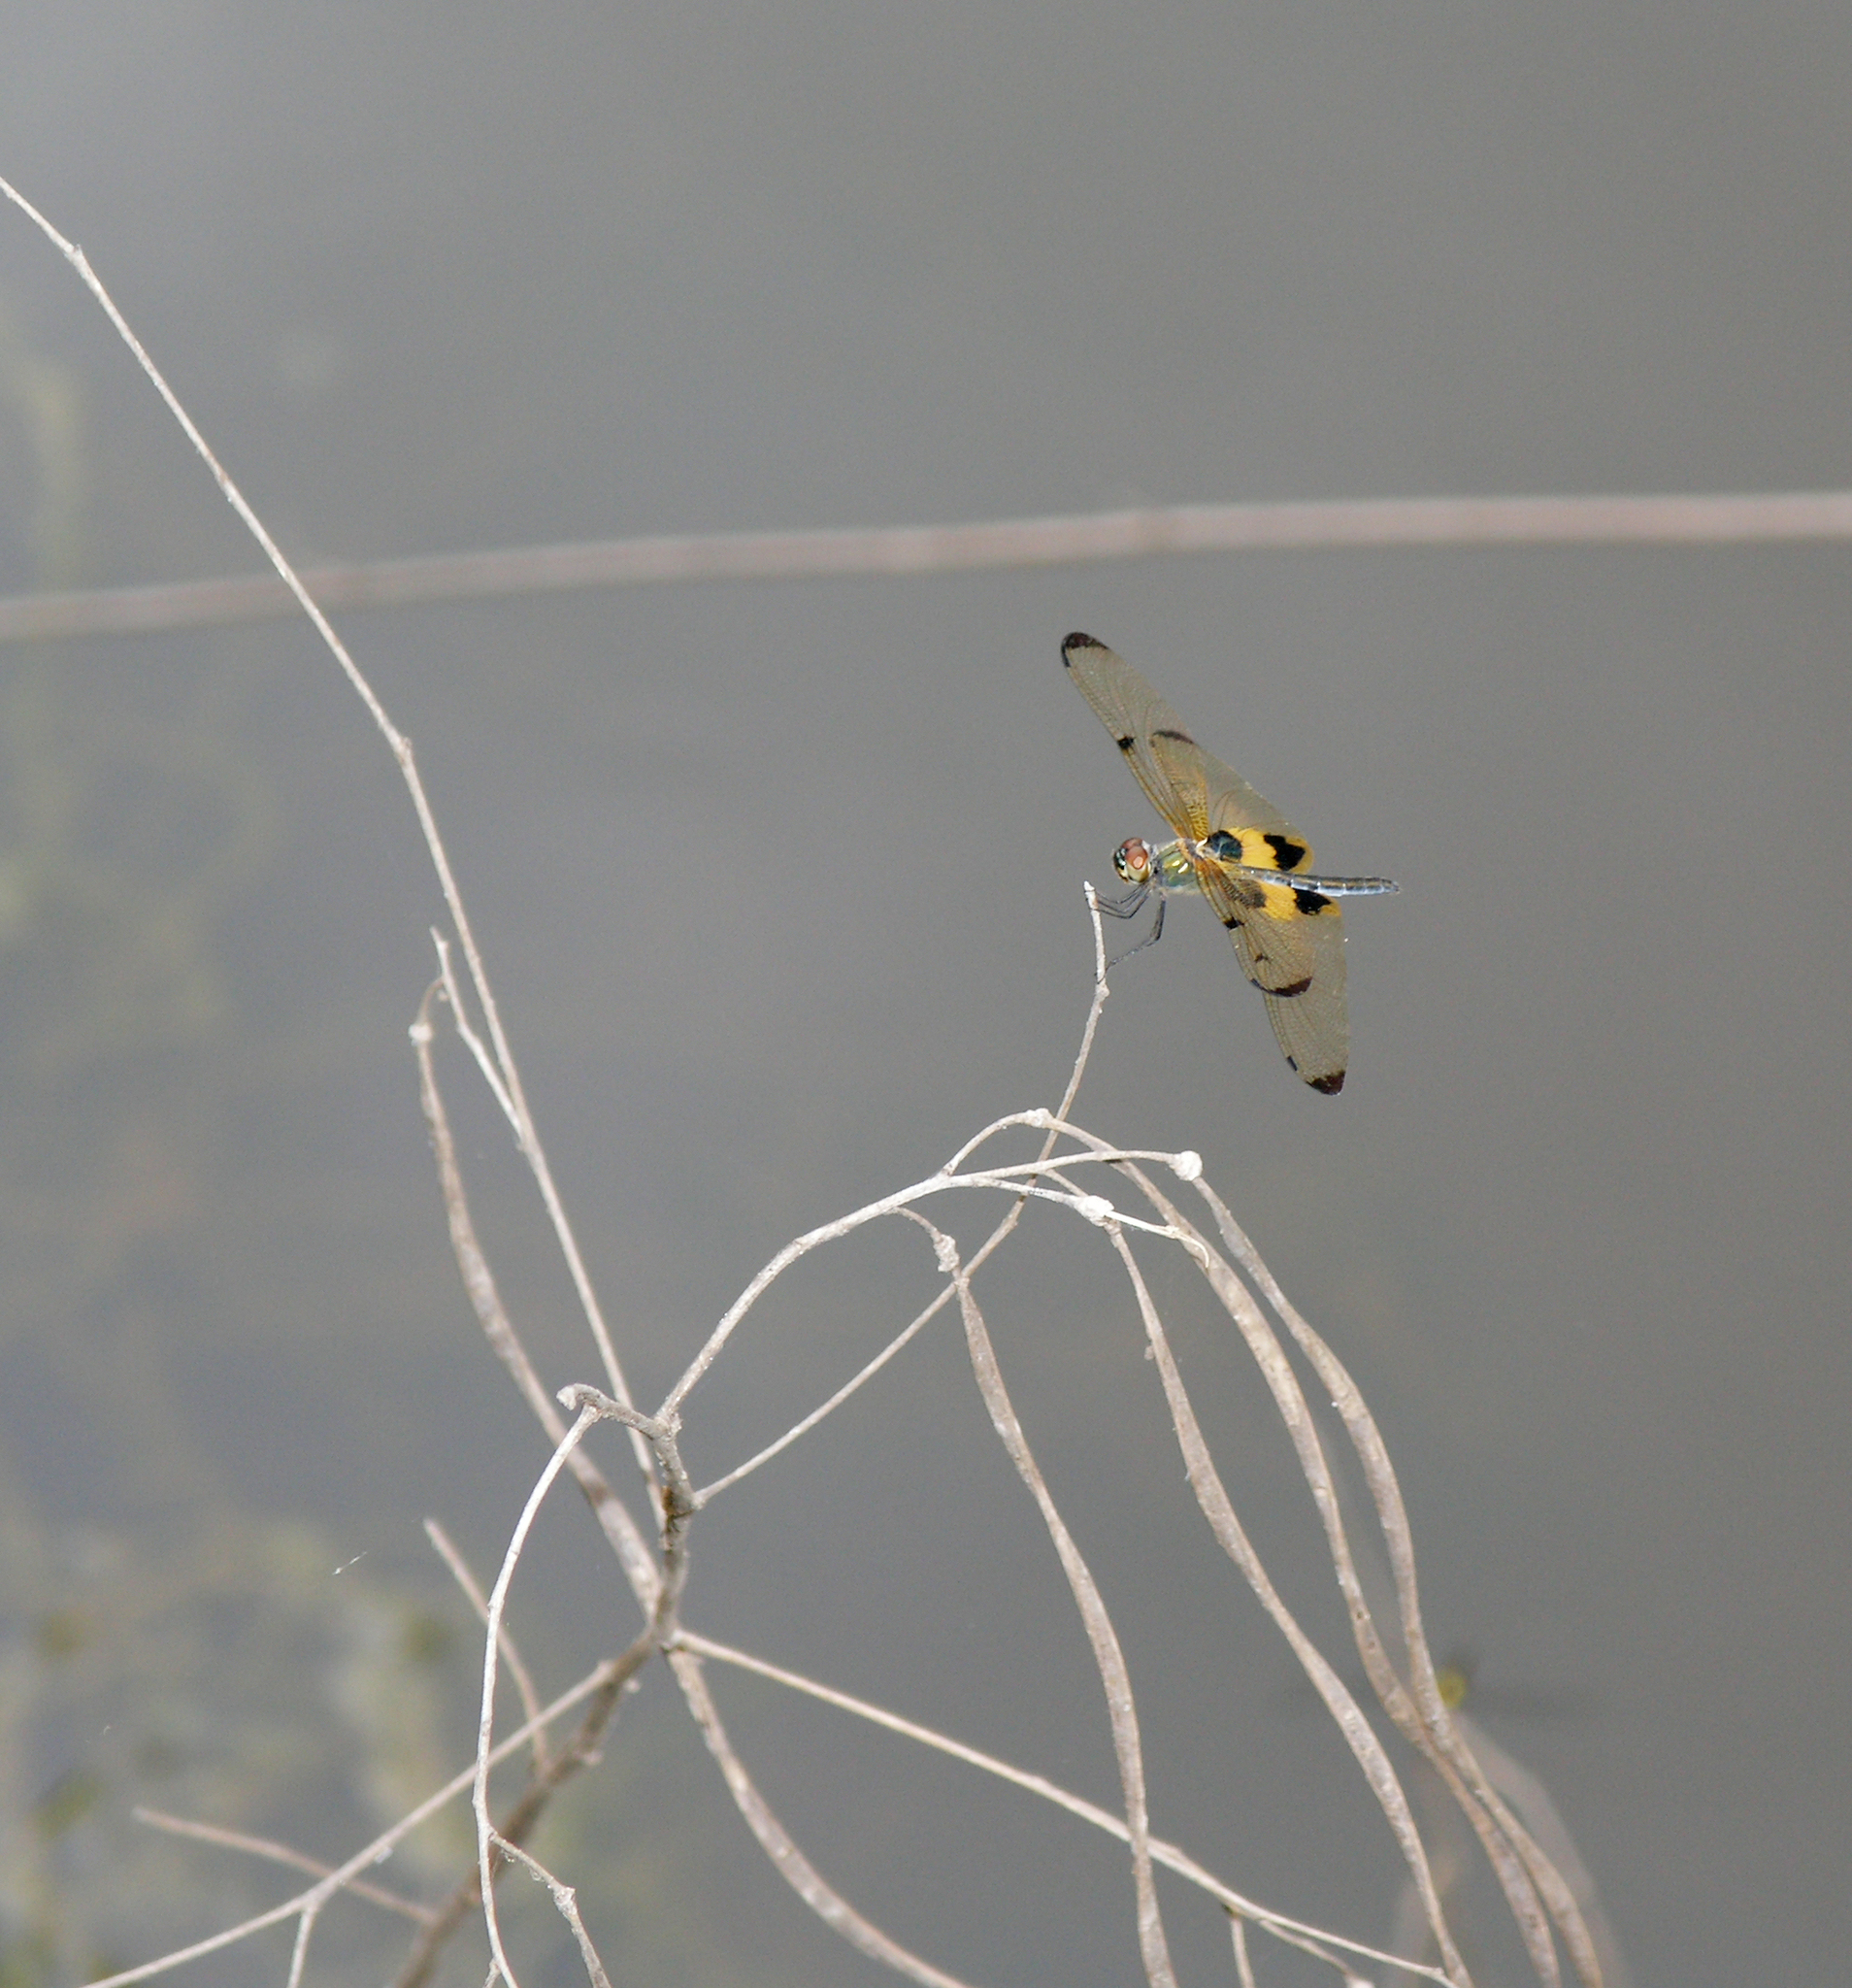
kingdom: Animalia
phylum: Arthropoda
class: Insecta
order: Odonata
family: Libellulidae
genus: Rhyothemis
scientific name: Rhyothemis phyllis
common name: Yellow-barred flutterer
